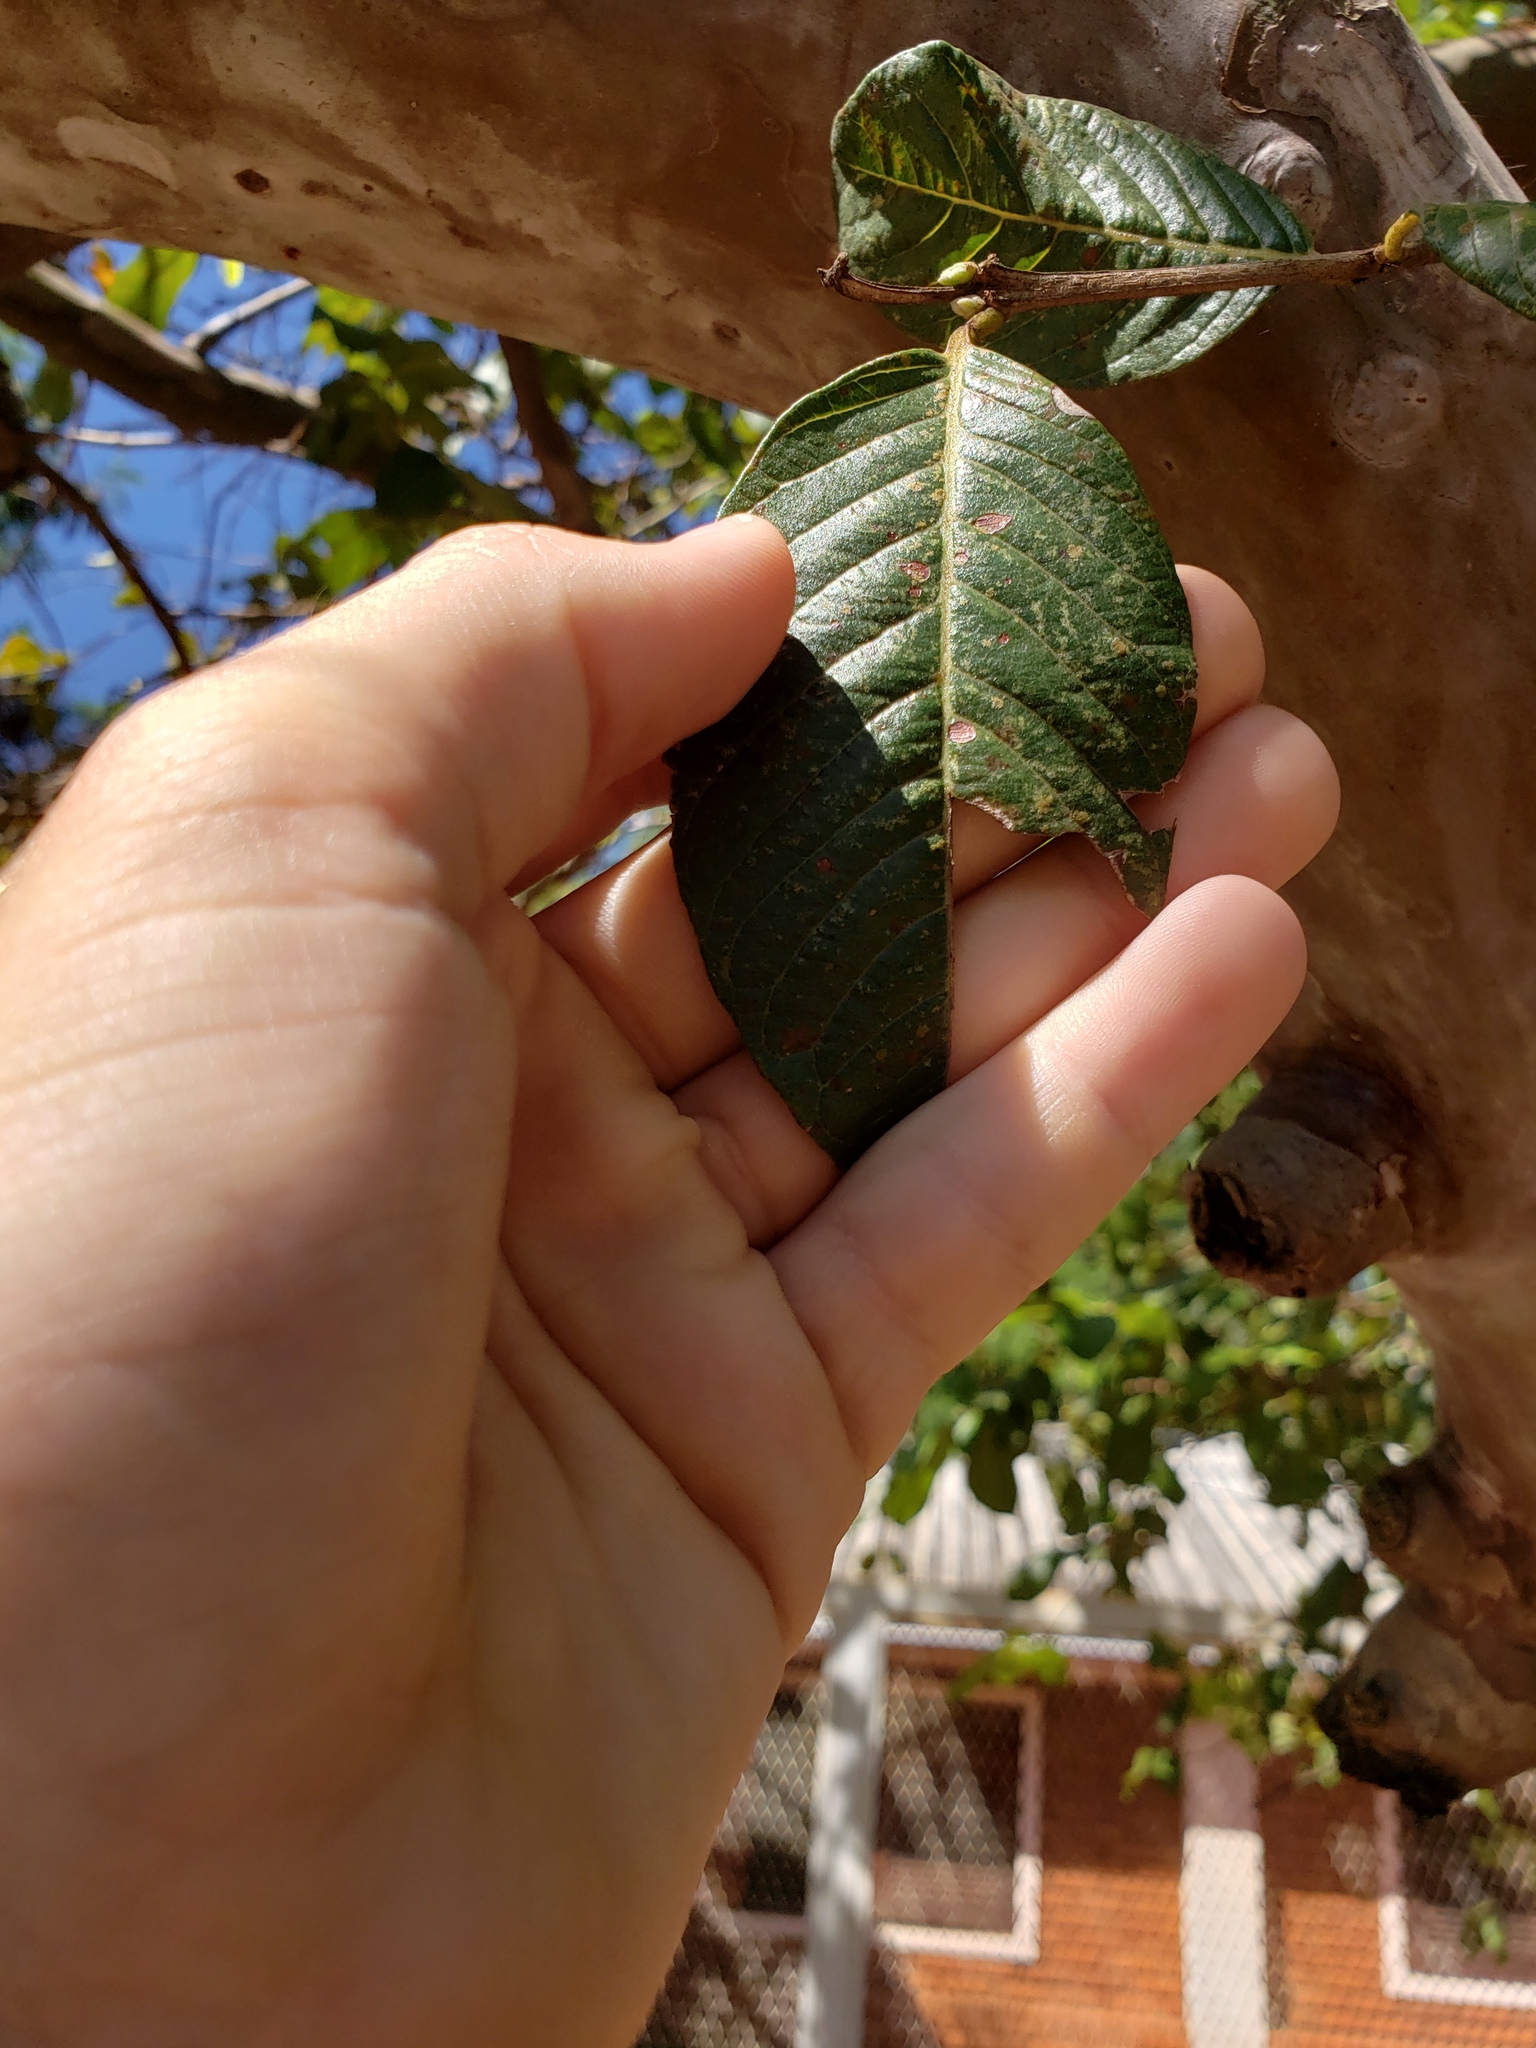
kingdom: Plantae
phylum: Tracheophyta
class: Magnoliopsida
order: Myrtales
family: Myrtaceae
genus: Psidium
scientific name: Psidium guajava
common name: Guava
